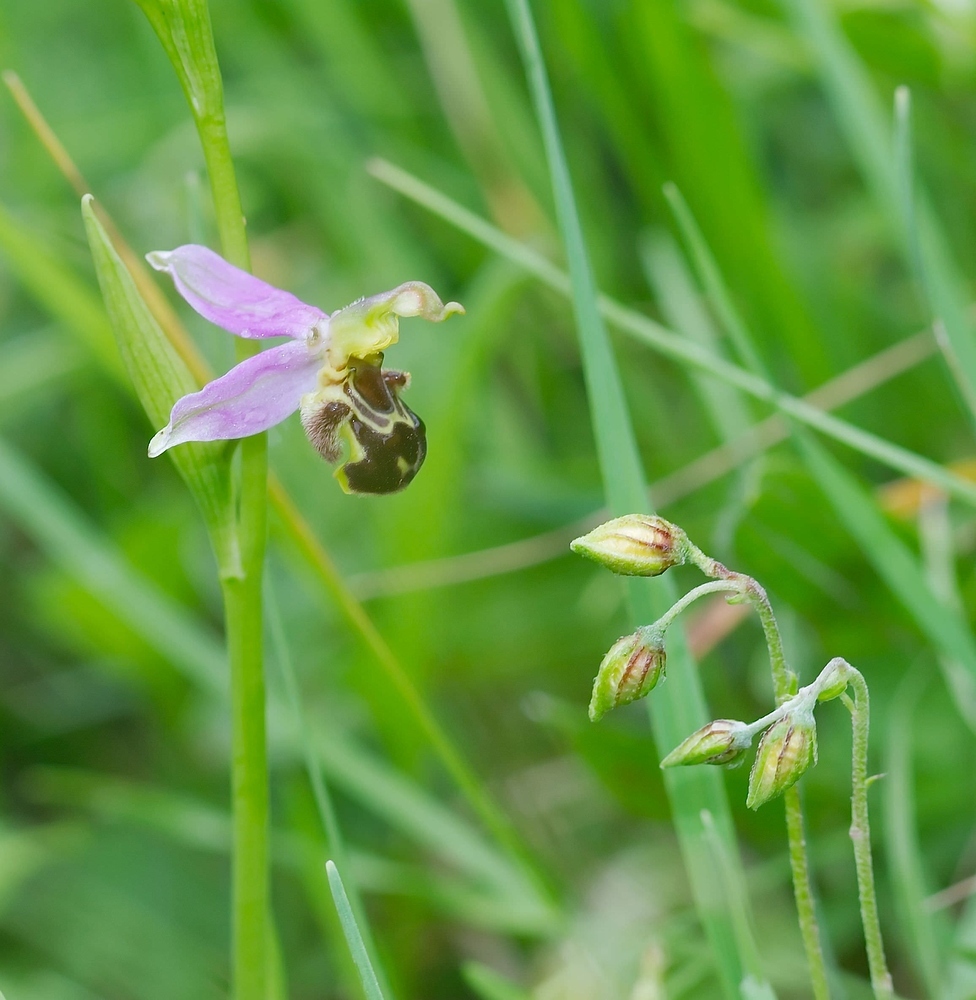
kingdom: Plantae
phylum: Tracheophyta
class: Liliopsida
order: Asparagales
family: Orchidaceae
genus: Ophrys
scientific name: Ophrys apifera
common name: Bee orchid
